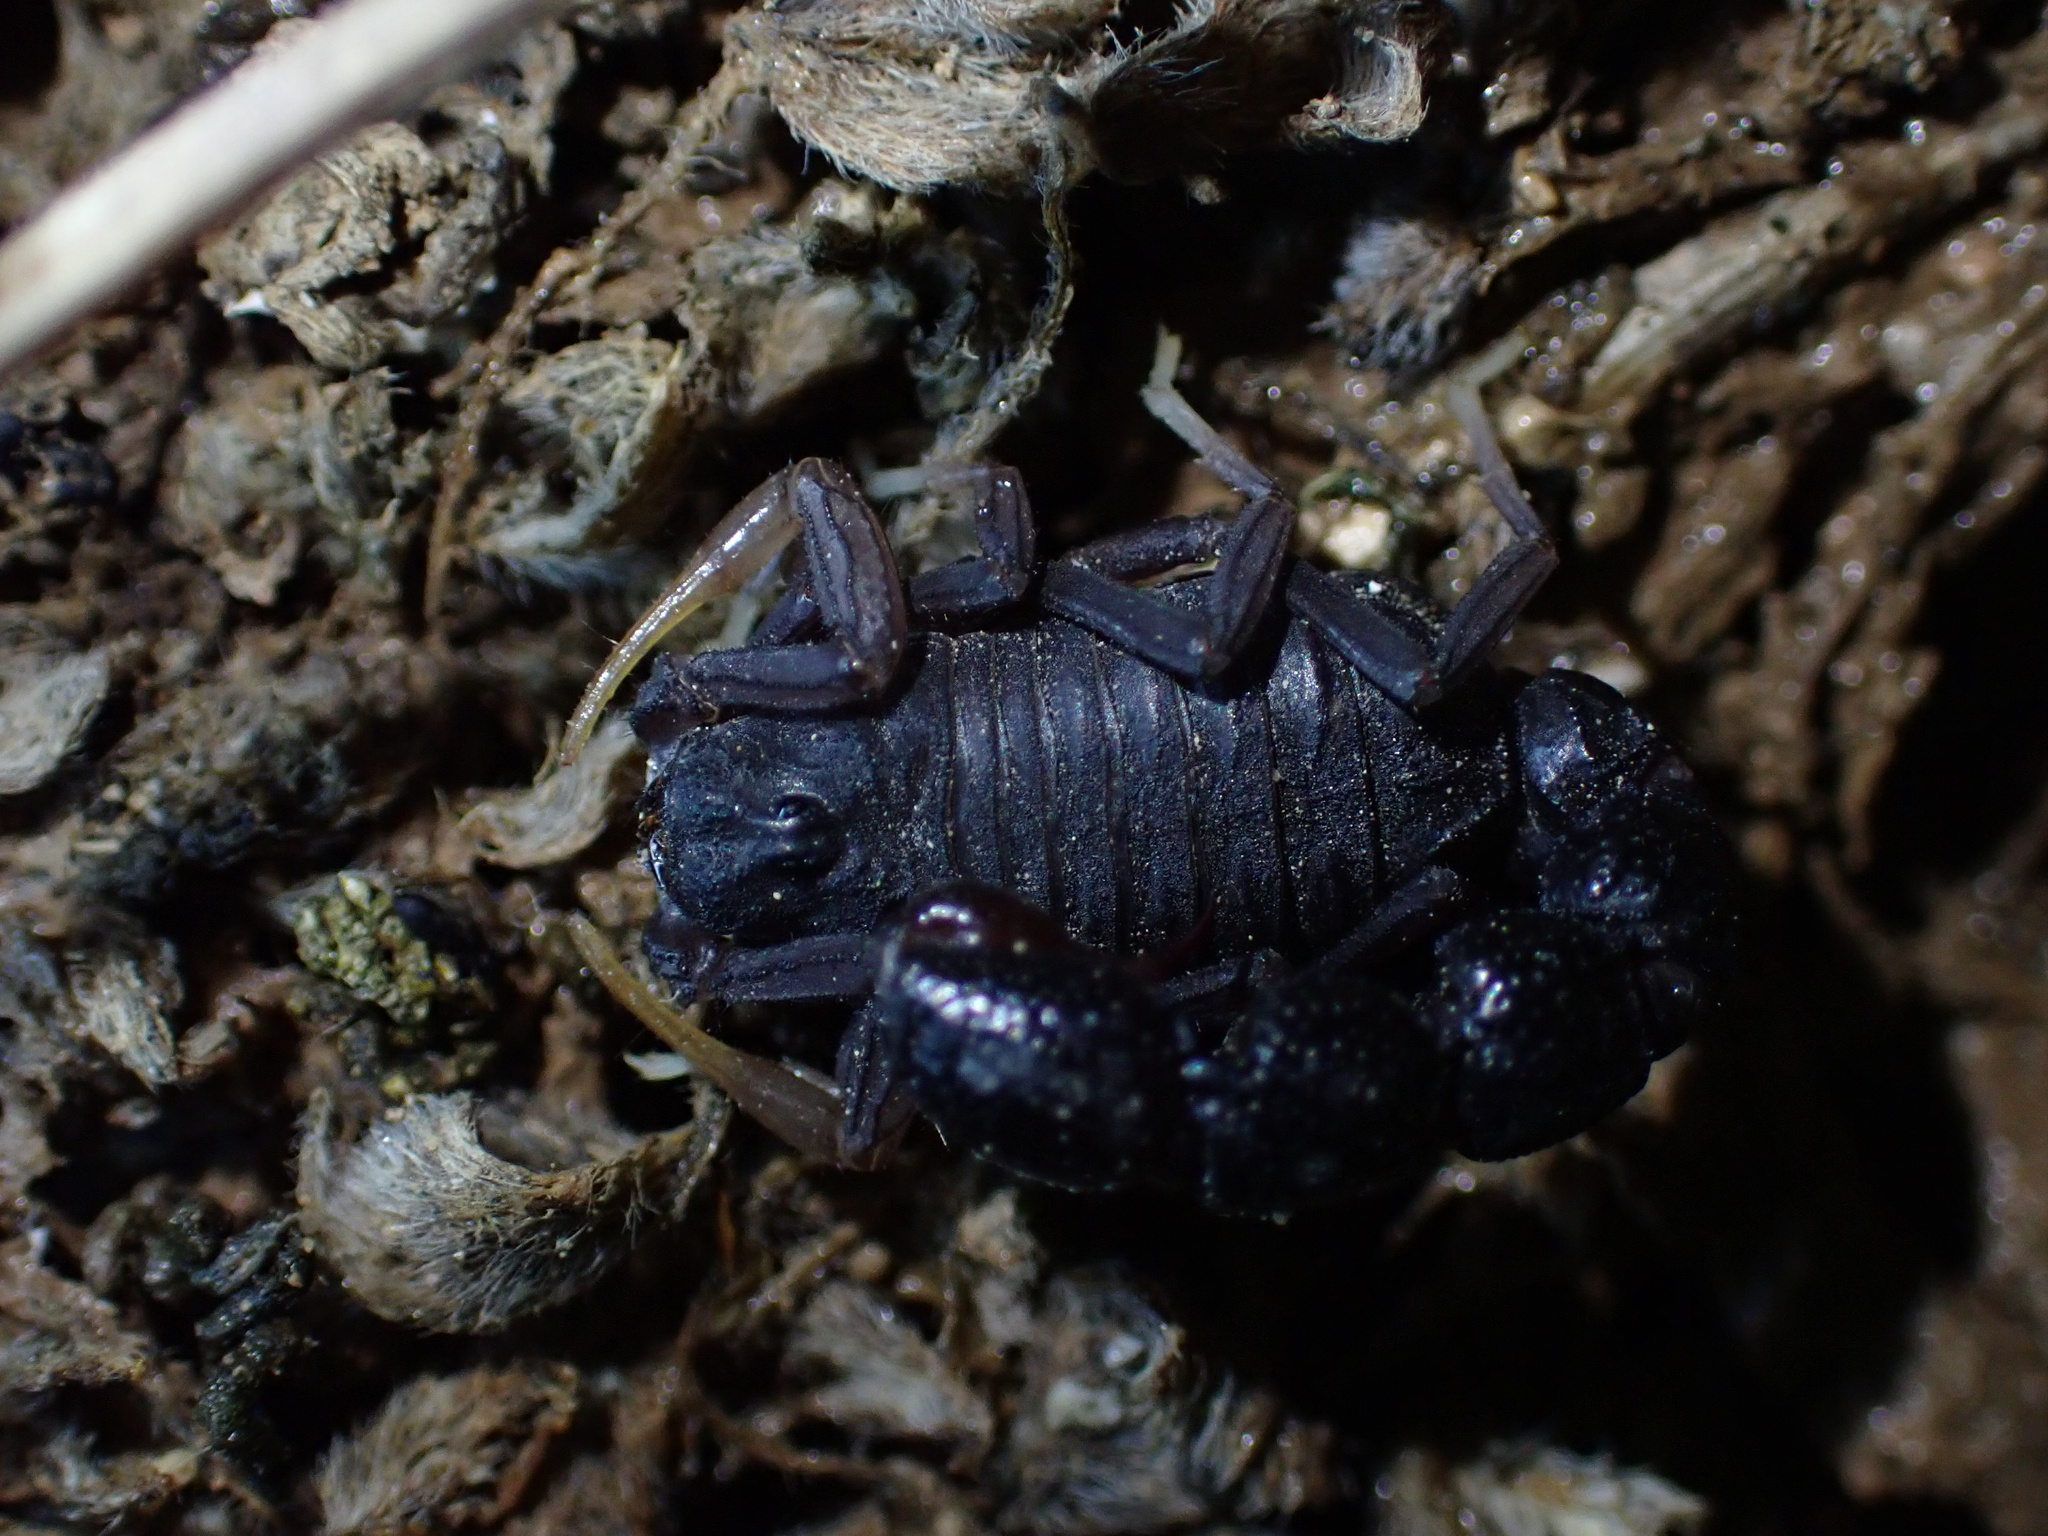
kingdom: Animalia
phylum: Arthropoda
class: Arachnida
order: Scorpiones
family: Buthidae
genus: Orthochirus
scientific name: Orthochirus farzanpayi
